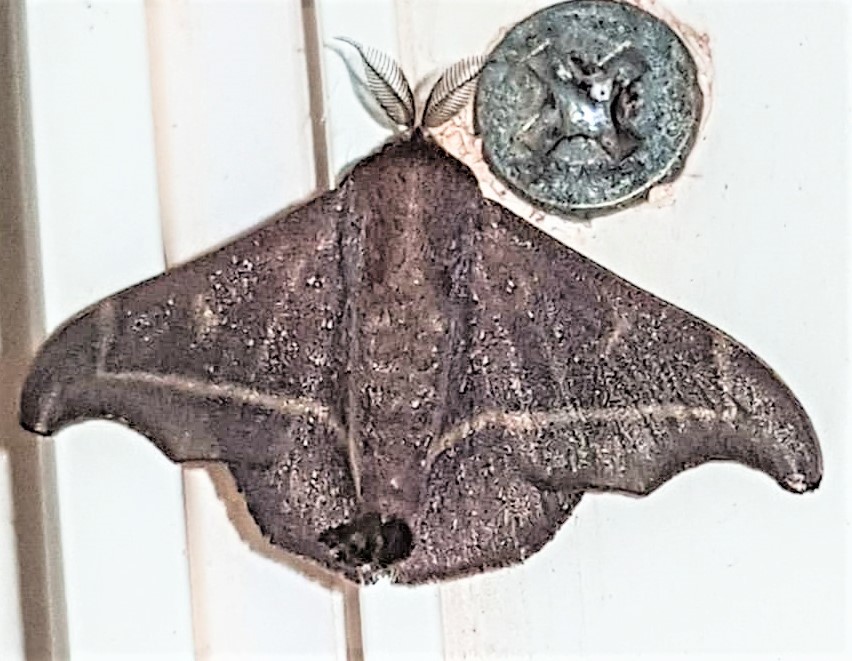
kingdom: Animalia
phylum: Arthropoda
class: Insecta
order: Lepidoptera
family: Mimallonidae
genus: Ulaluma
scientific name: Ulaluma valva
